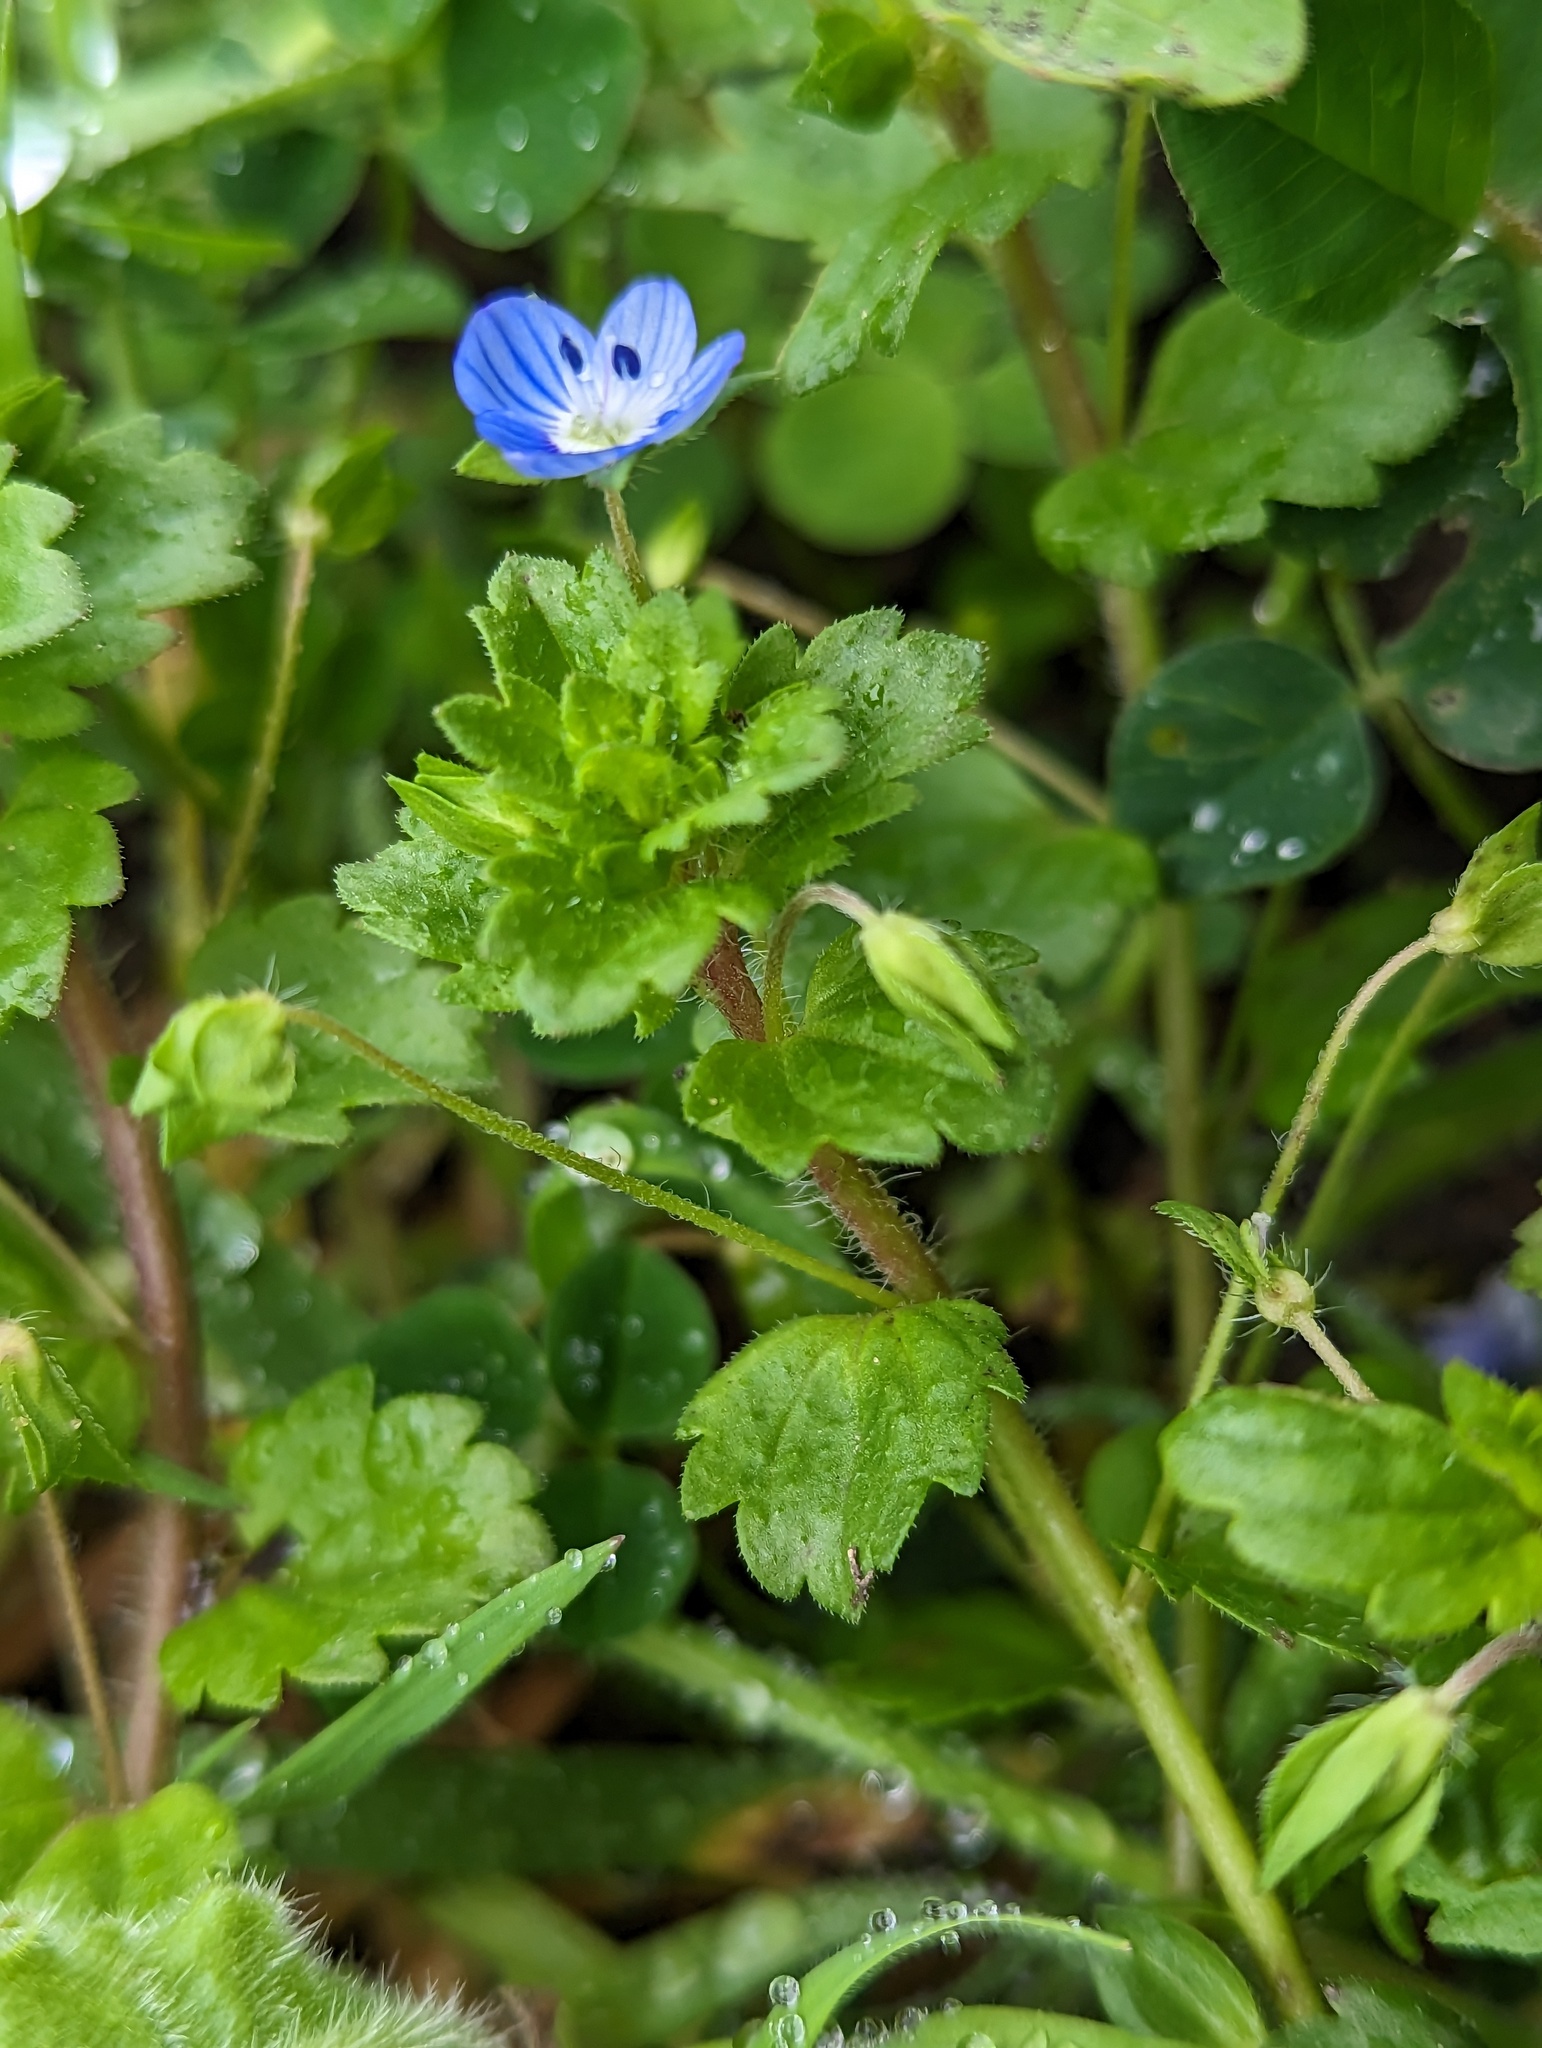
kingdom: Plantae
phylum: Tracheophyta
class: Magnoliopsida
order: Lamiales
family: Plantaginaceae
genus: Veronica
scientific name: Veronica persica
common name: Common field-speedwell
